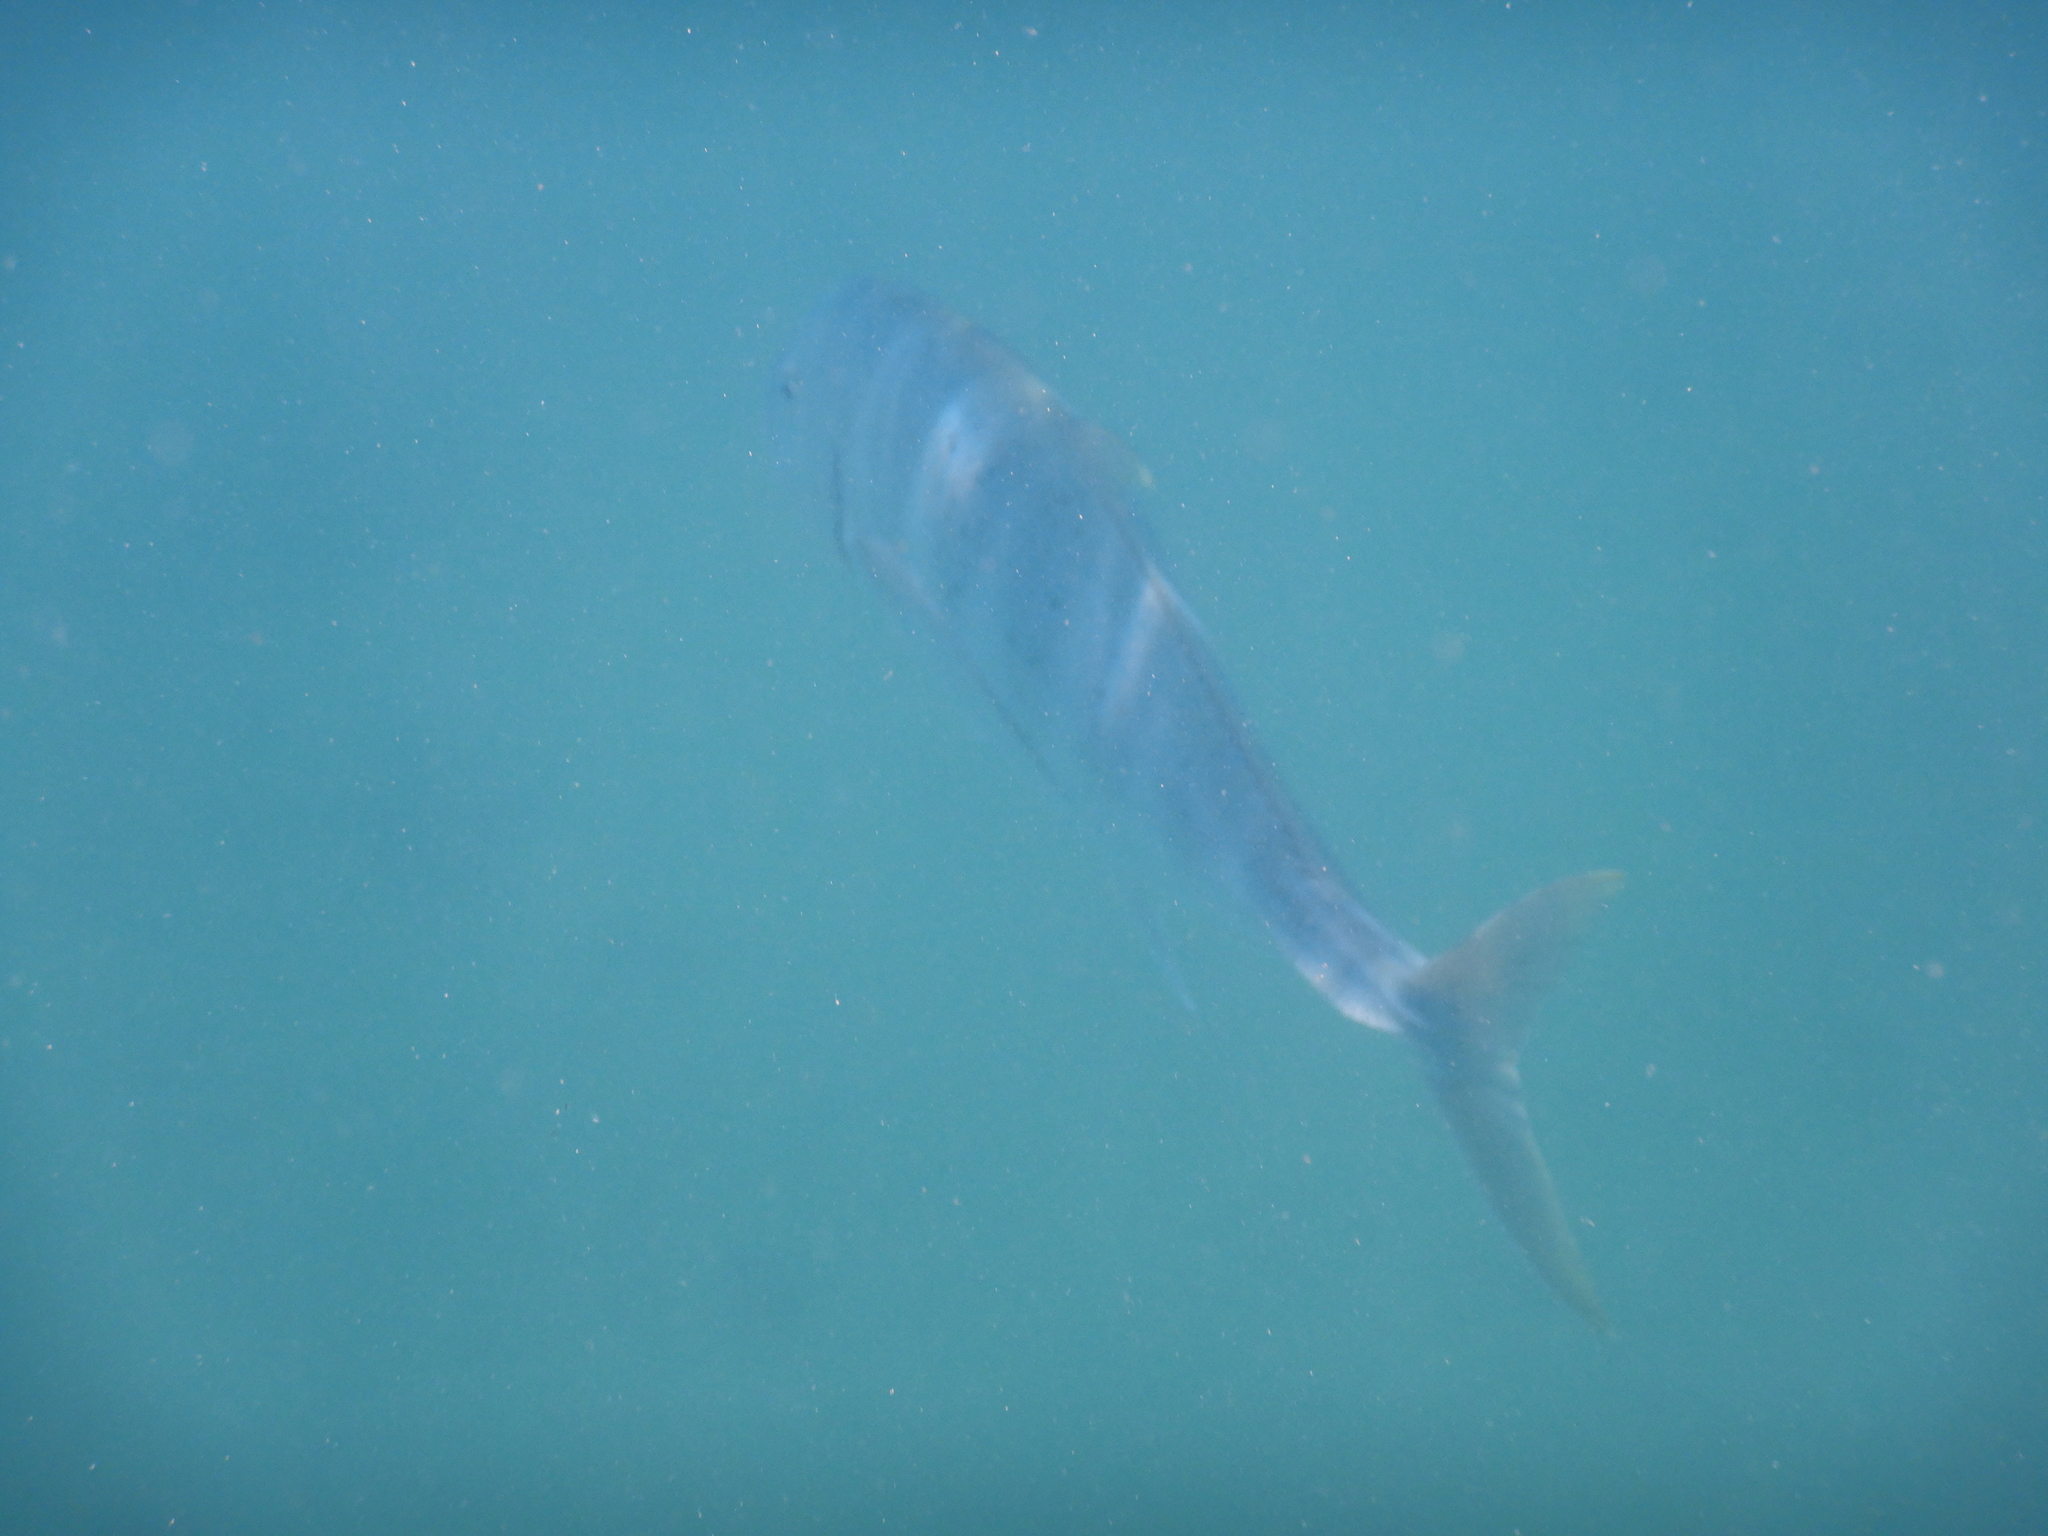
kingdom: Animalia
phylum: Chordata
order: Perciformes
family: Carangidae
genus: Caranx
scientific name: Caranx papuensis
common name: Brassy trevally
